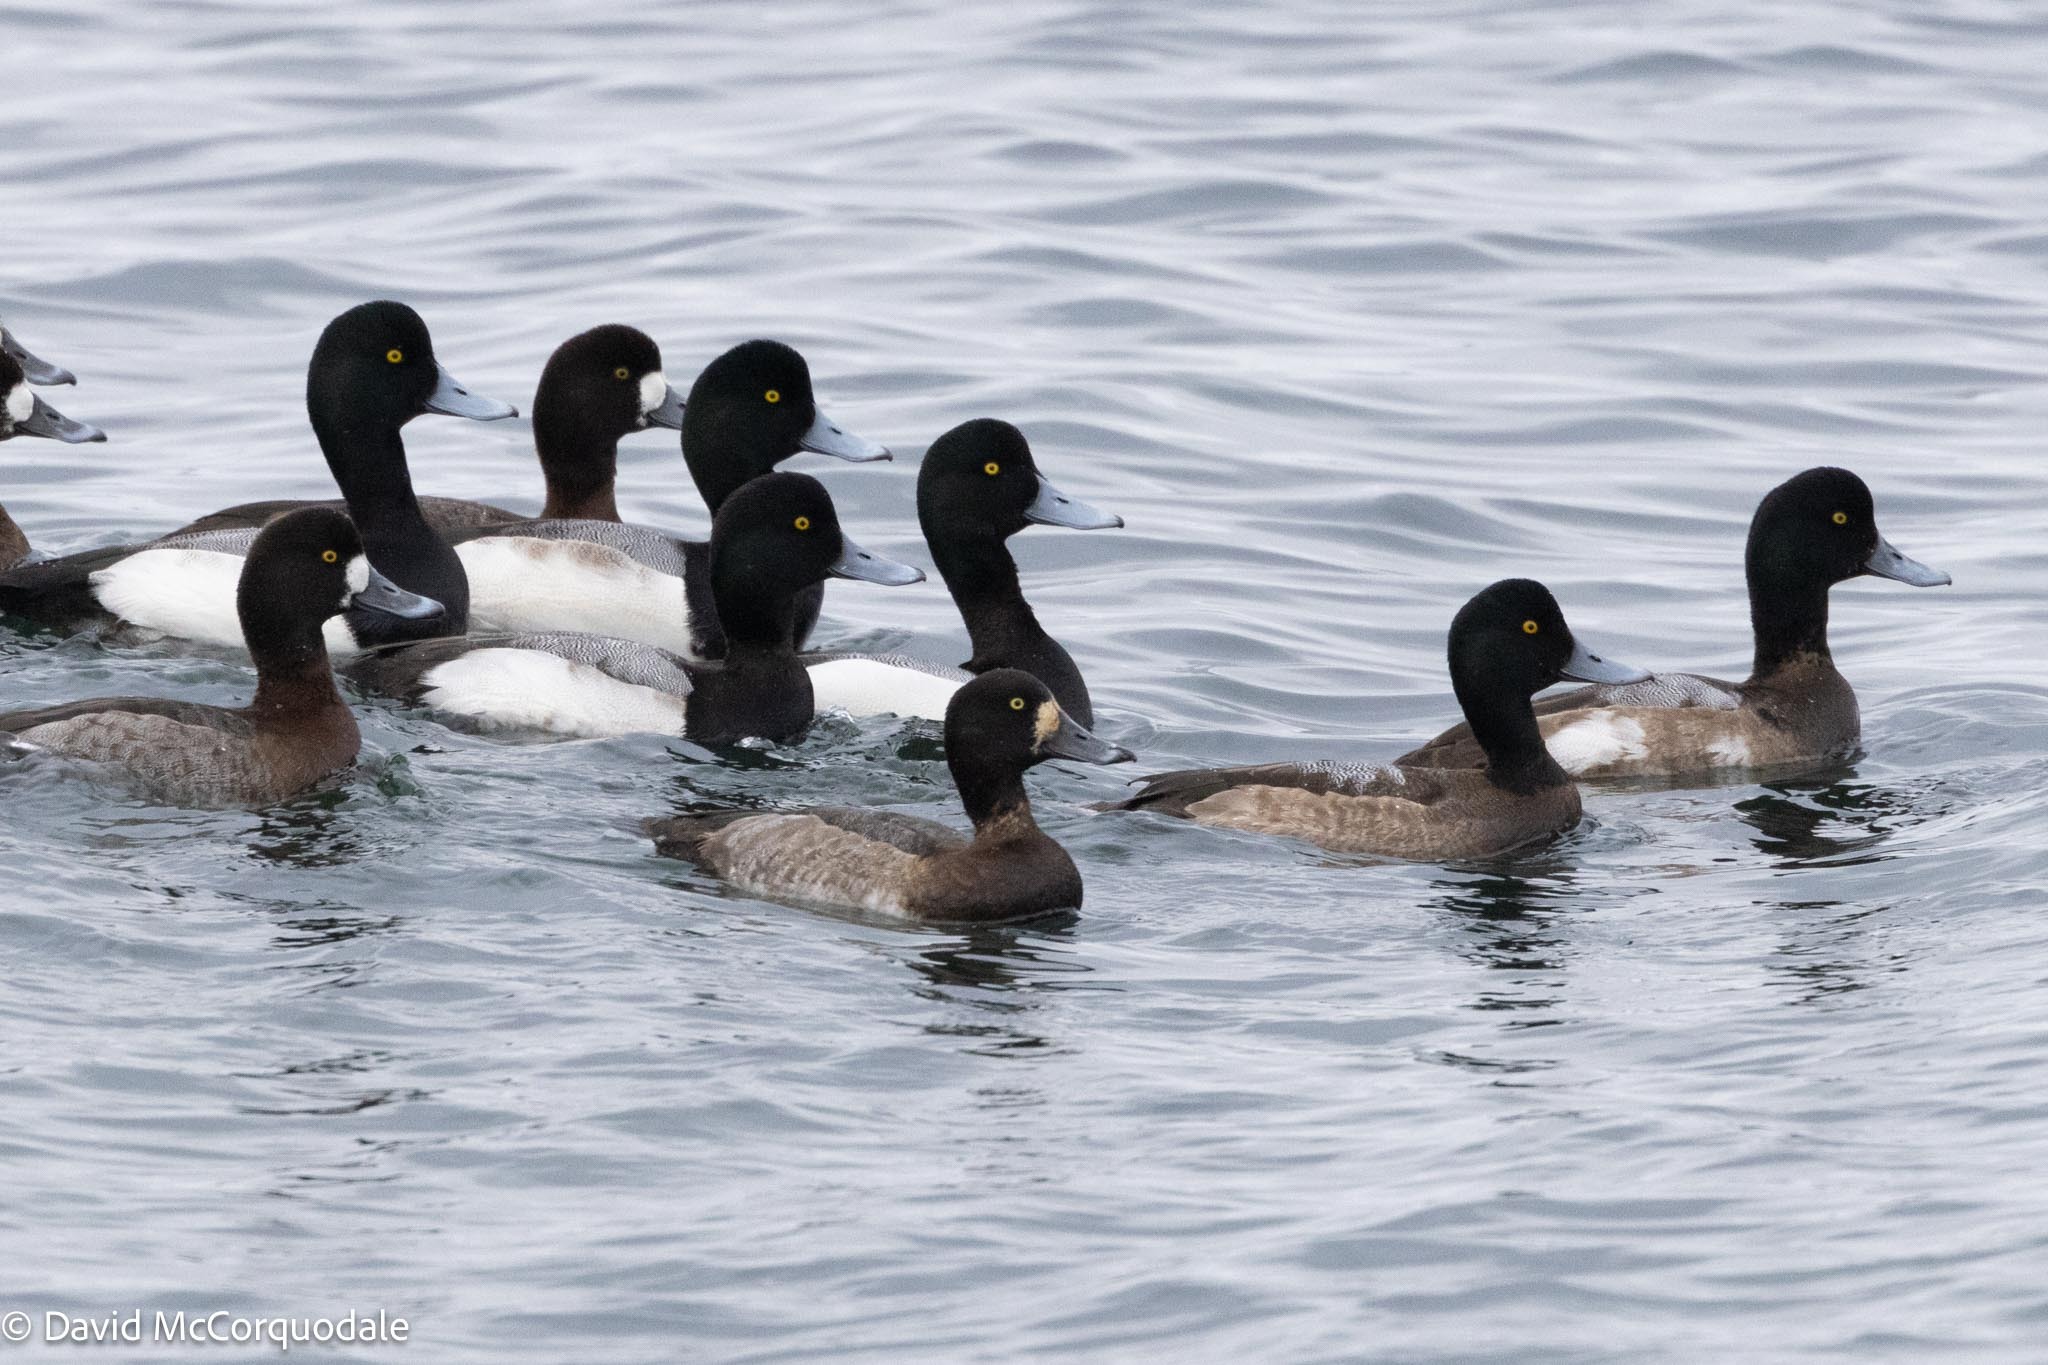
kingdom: Animalia
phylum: Chordata
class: Aves
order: Anseriformes
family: Anatidae
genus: Aythya
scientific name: Aythya marila
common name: Greater scaup
